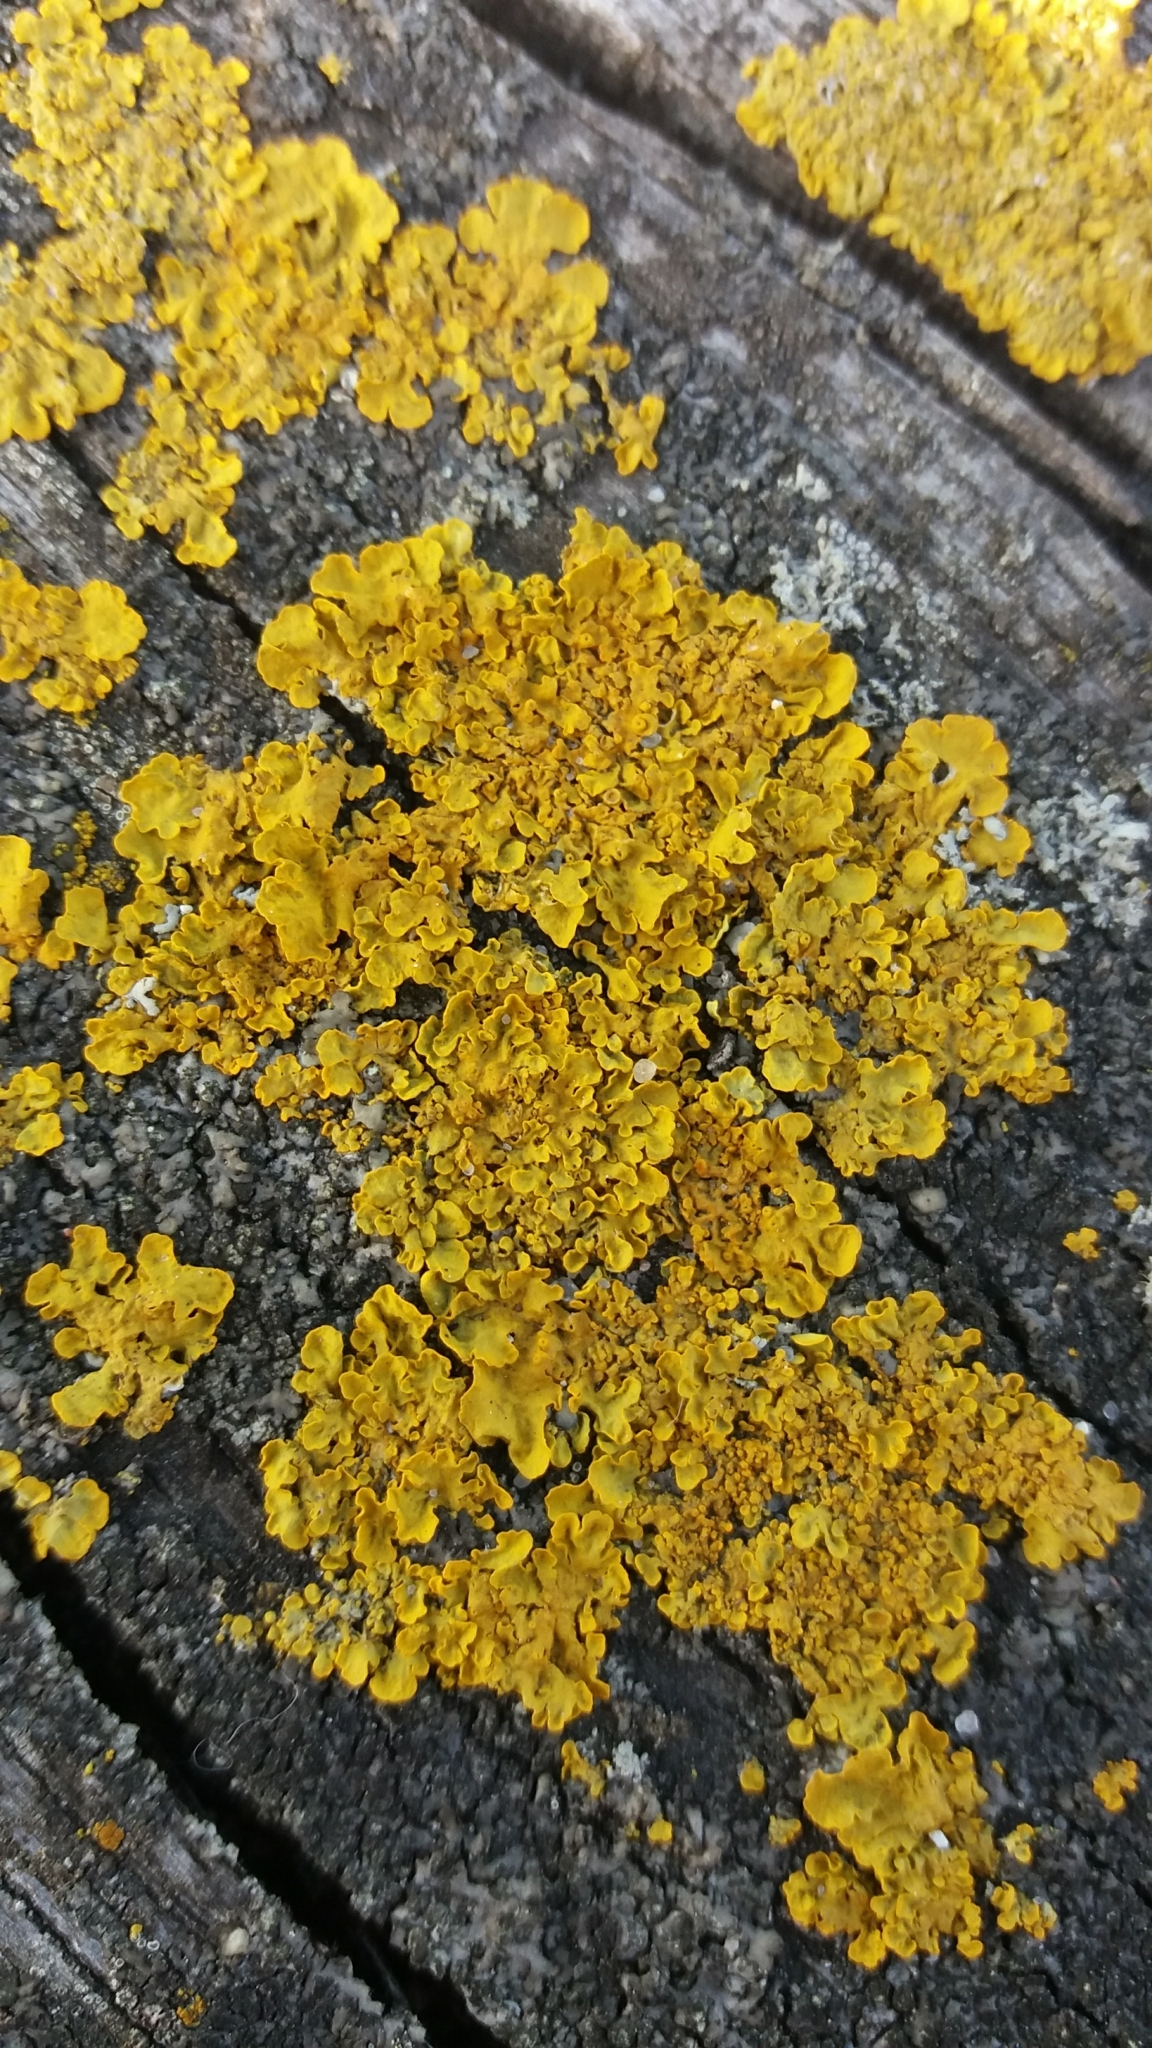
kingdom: Fungi
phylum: Ascomycota
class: Lecanoromycetes
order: Teloschistales
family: Teloschistaceae
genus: Xanthoria
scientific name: Xanthoria parietina
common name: Common orange lichen
